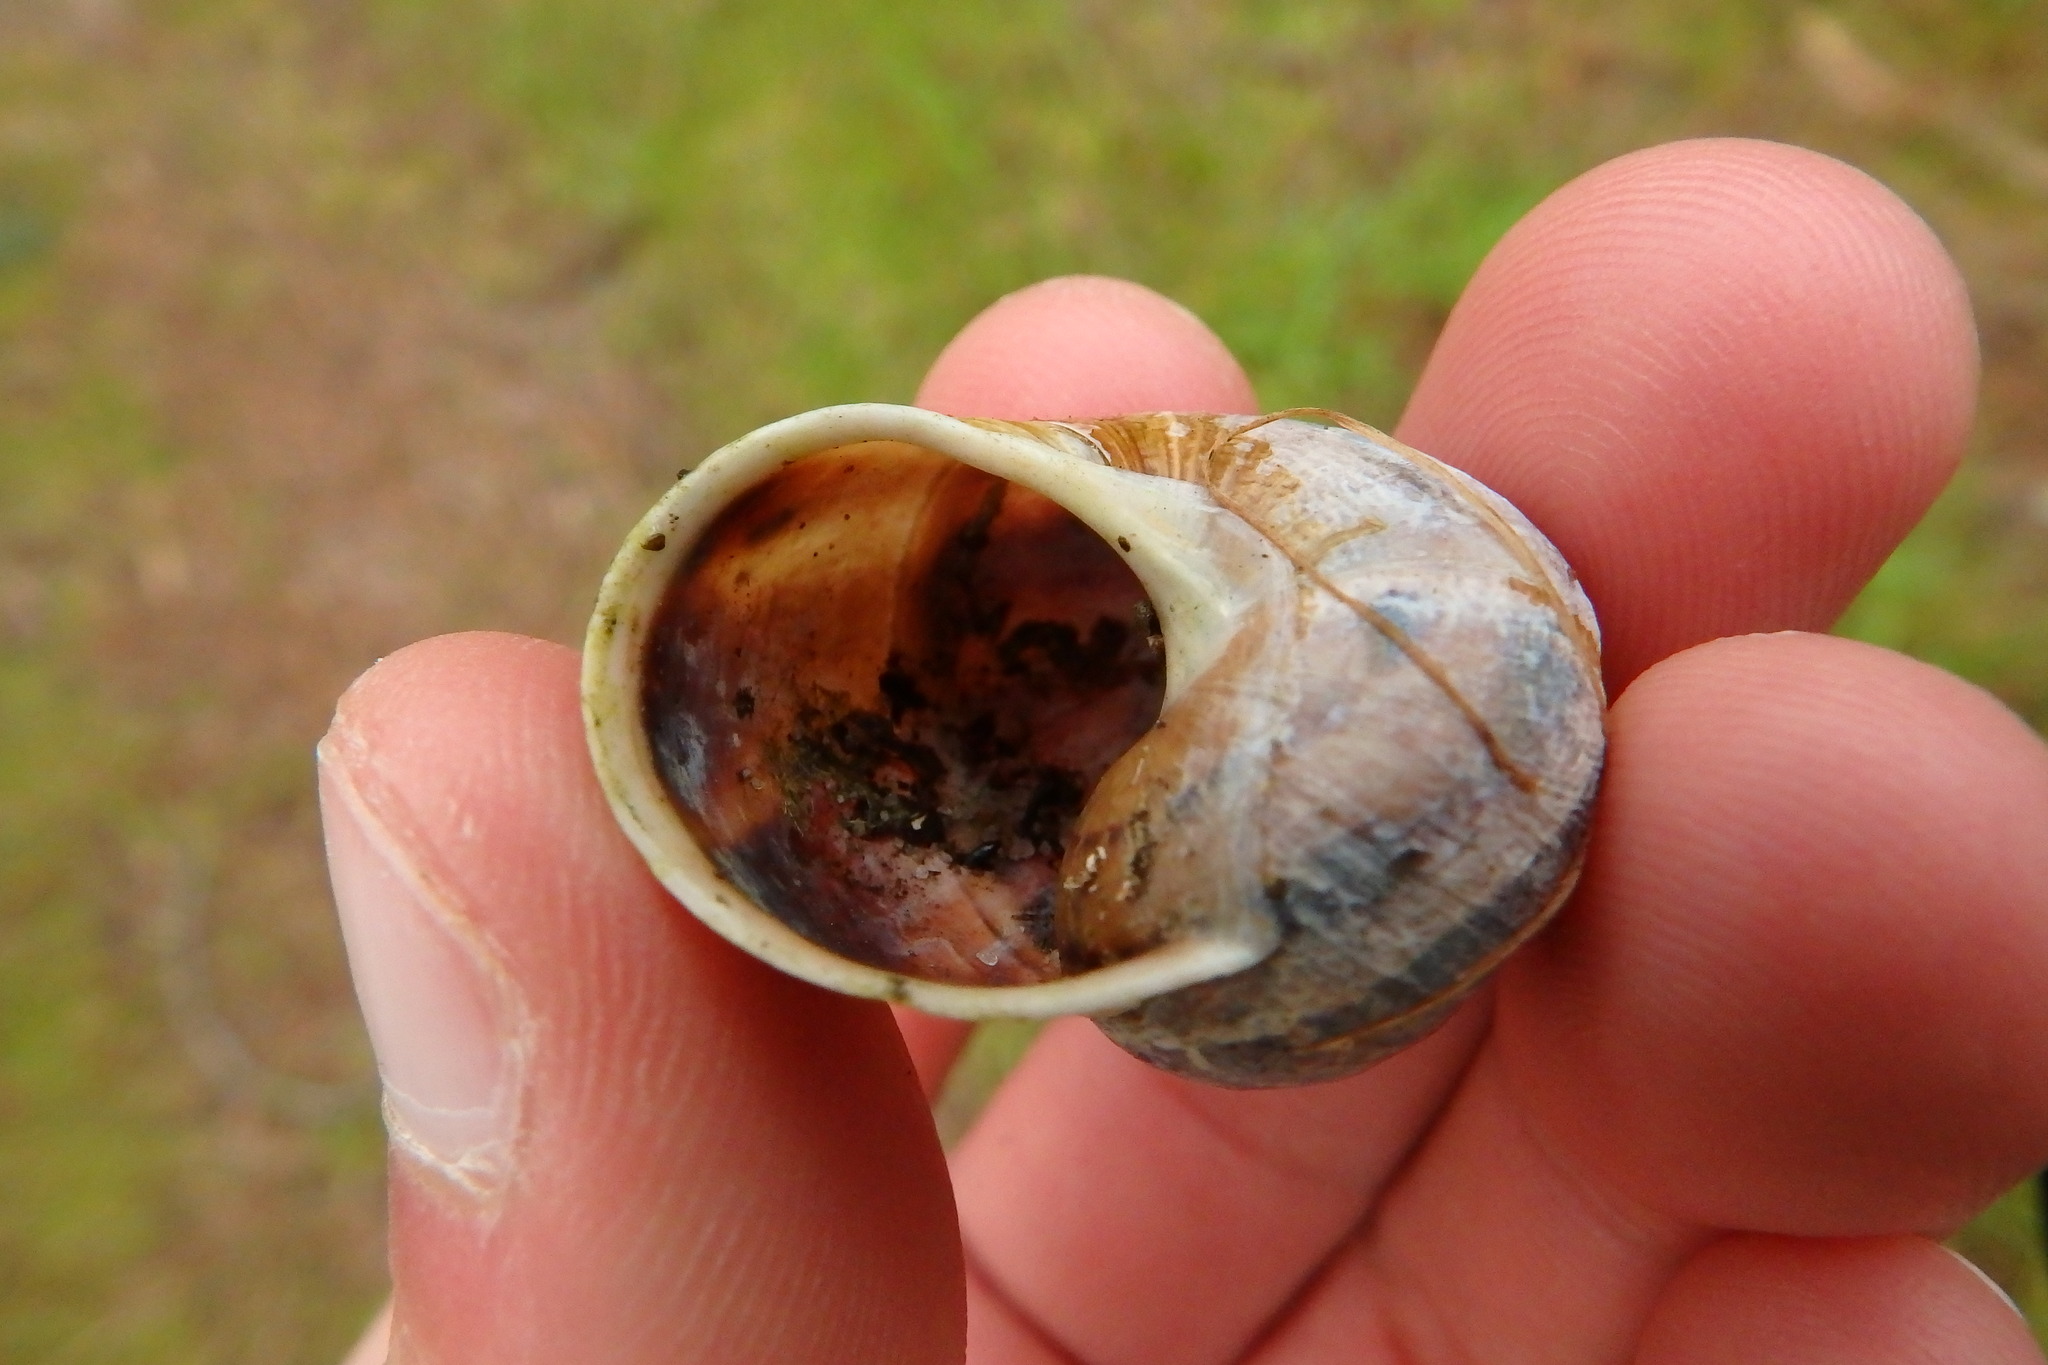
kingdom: Animalia
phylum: Mollusca
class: Gastropoda
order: Stylommatophora
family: Helicidae
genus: Cornu
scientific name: Cornu aspersum
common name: Brown garden snail
